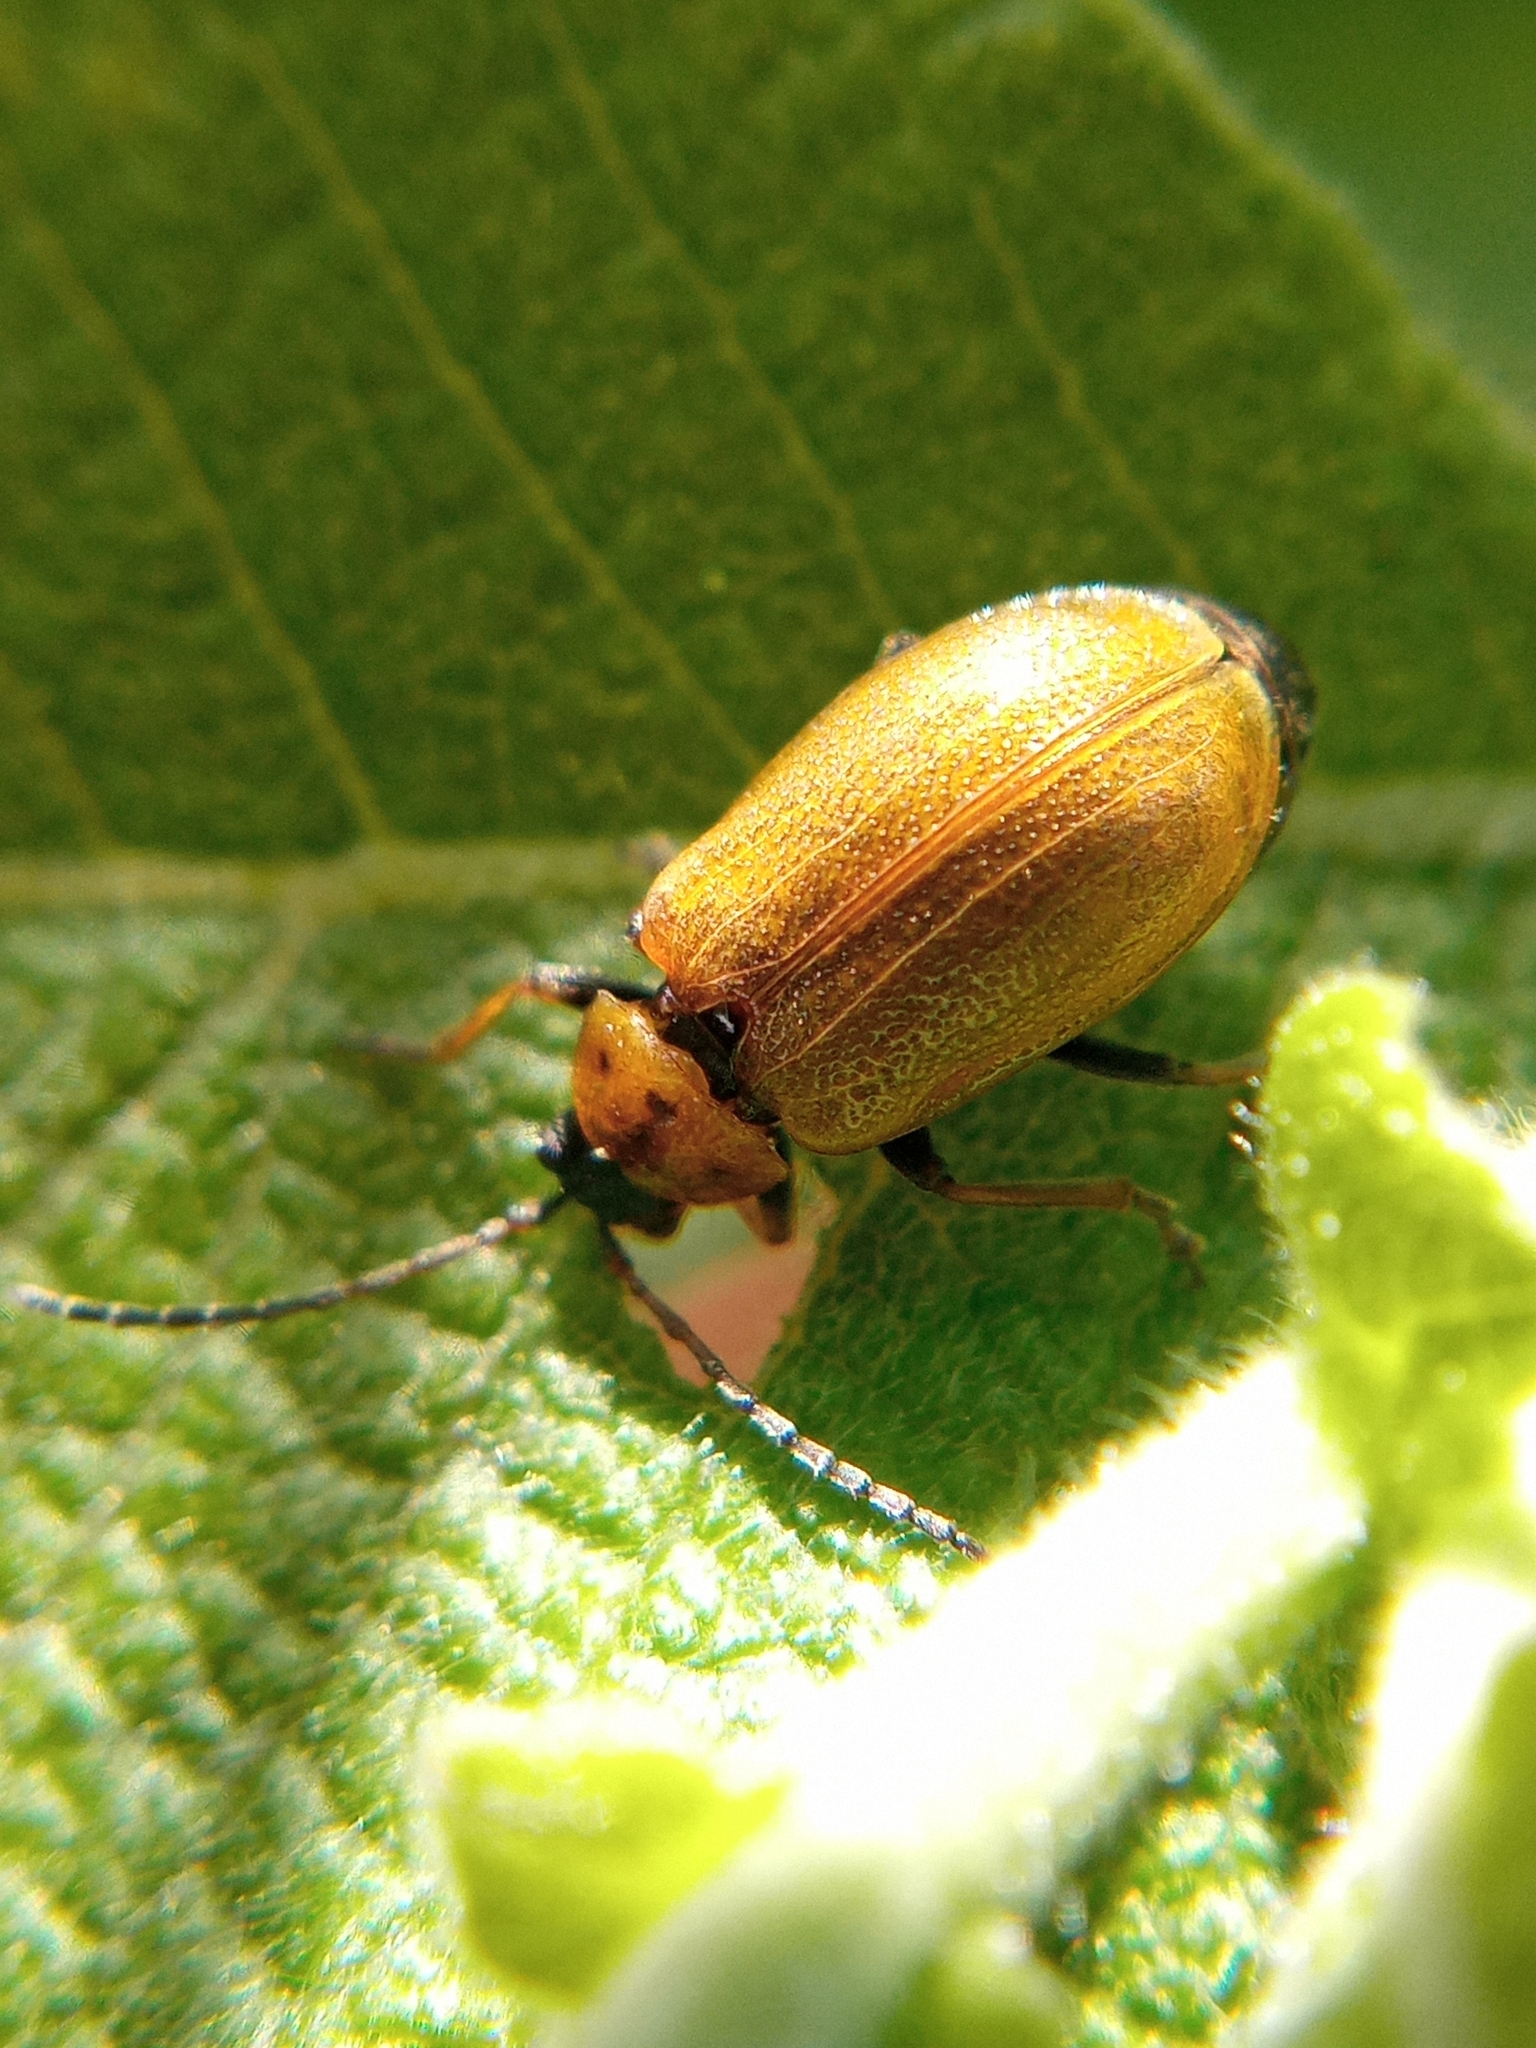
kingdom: Animalia
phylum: Arthropoda
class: Insecta
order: Coleoptera
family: Chrysomelidae
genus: Lochmaea
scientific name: Lochmaea caprea
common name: Willow leaf beetle
